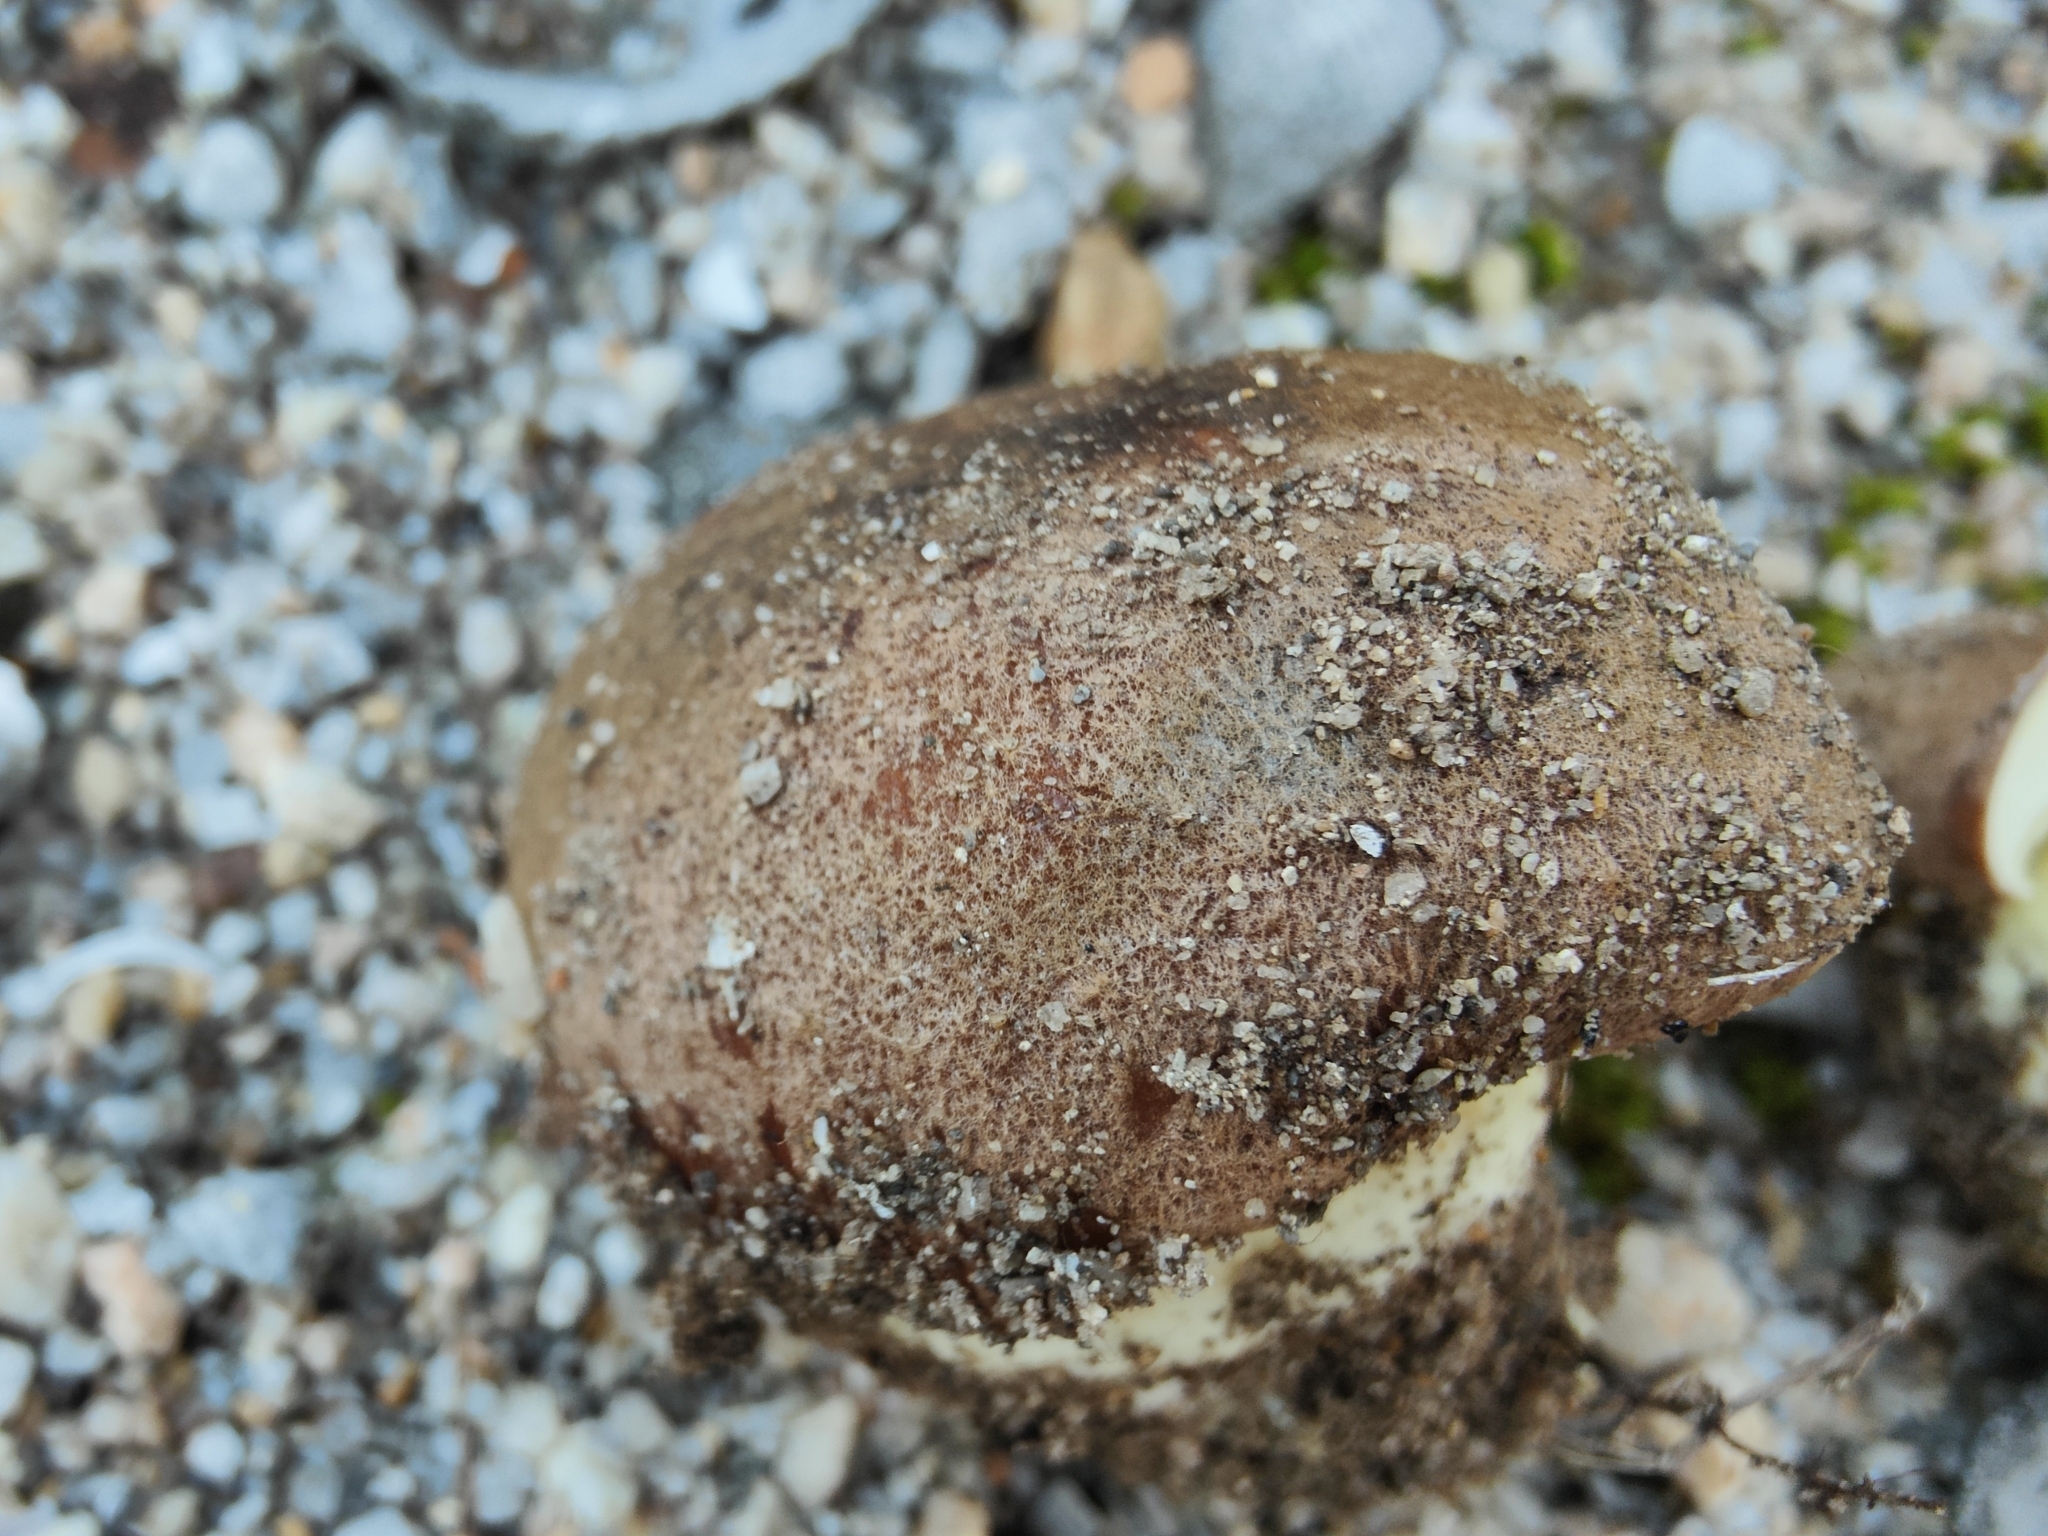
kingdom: Fungi
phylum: Basidiomycota
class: Agaricomycetes
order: Boletales
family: Boletaceae
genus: Leccinellum
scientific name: Leccinellum
